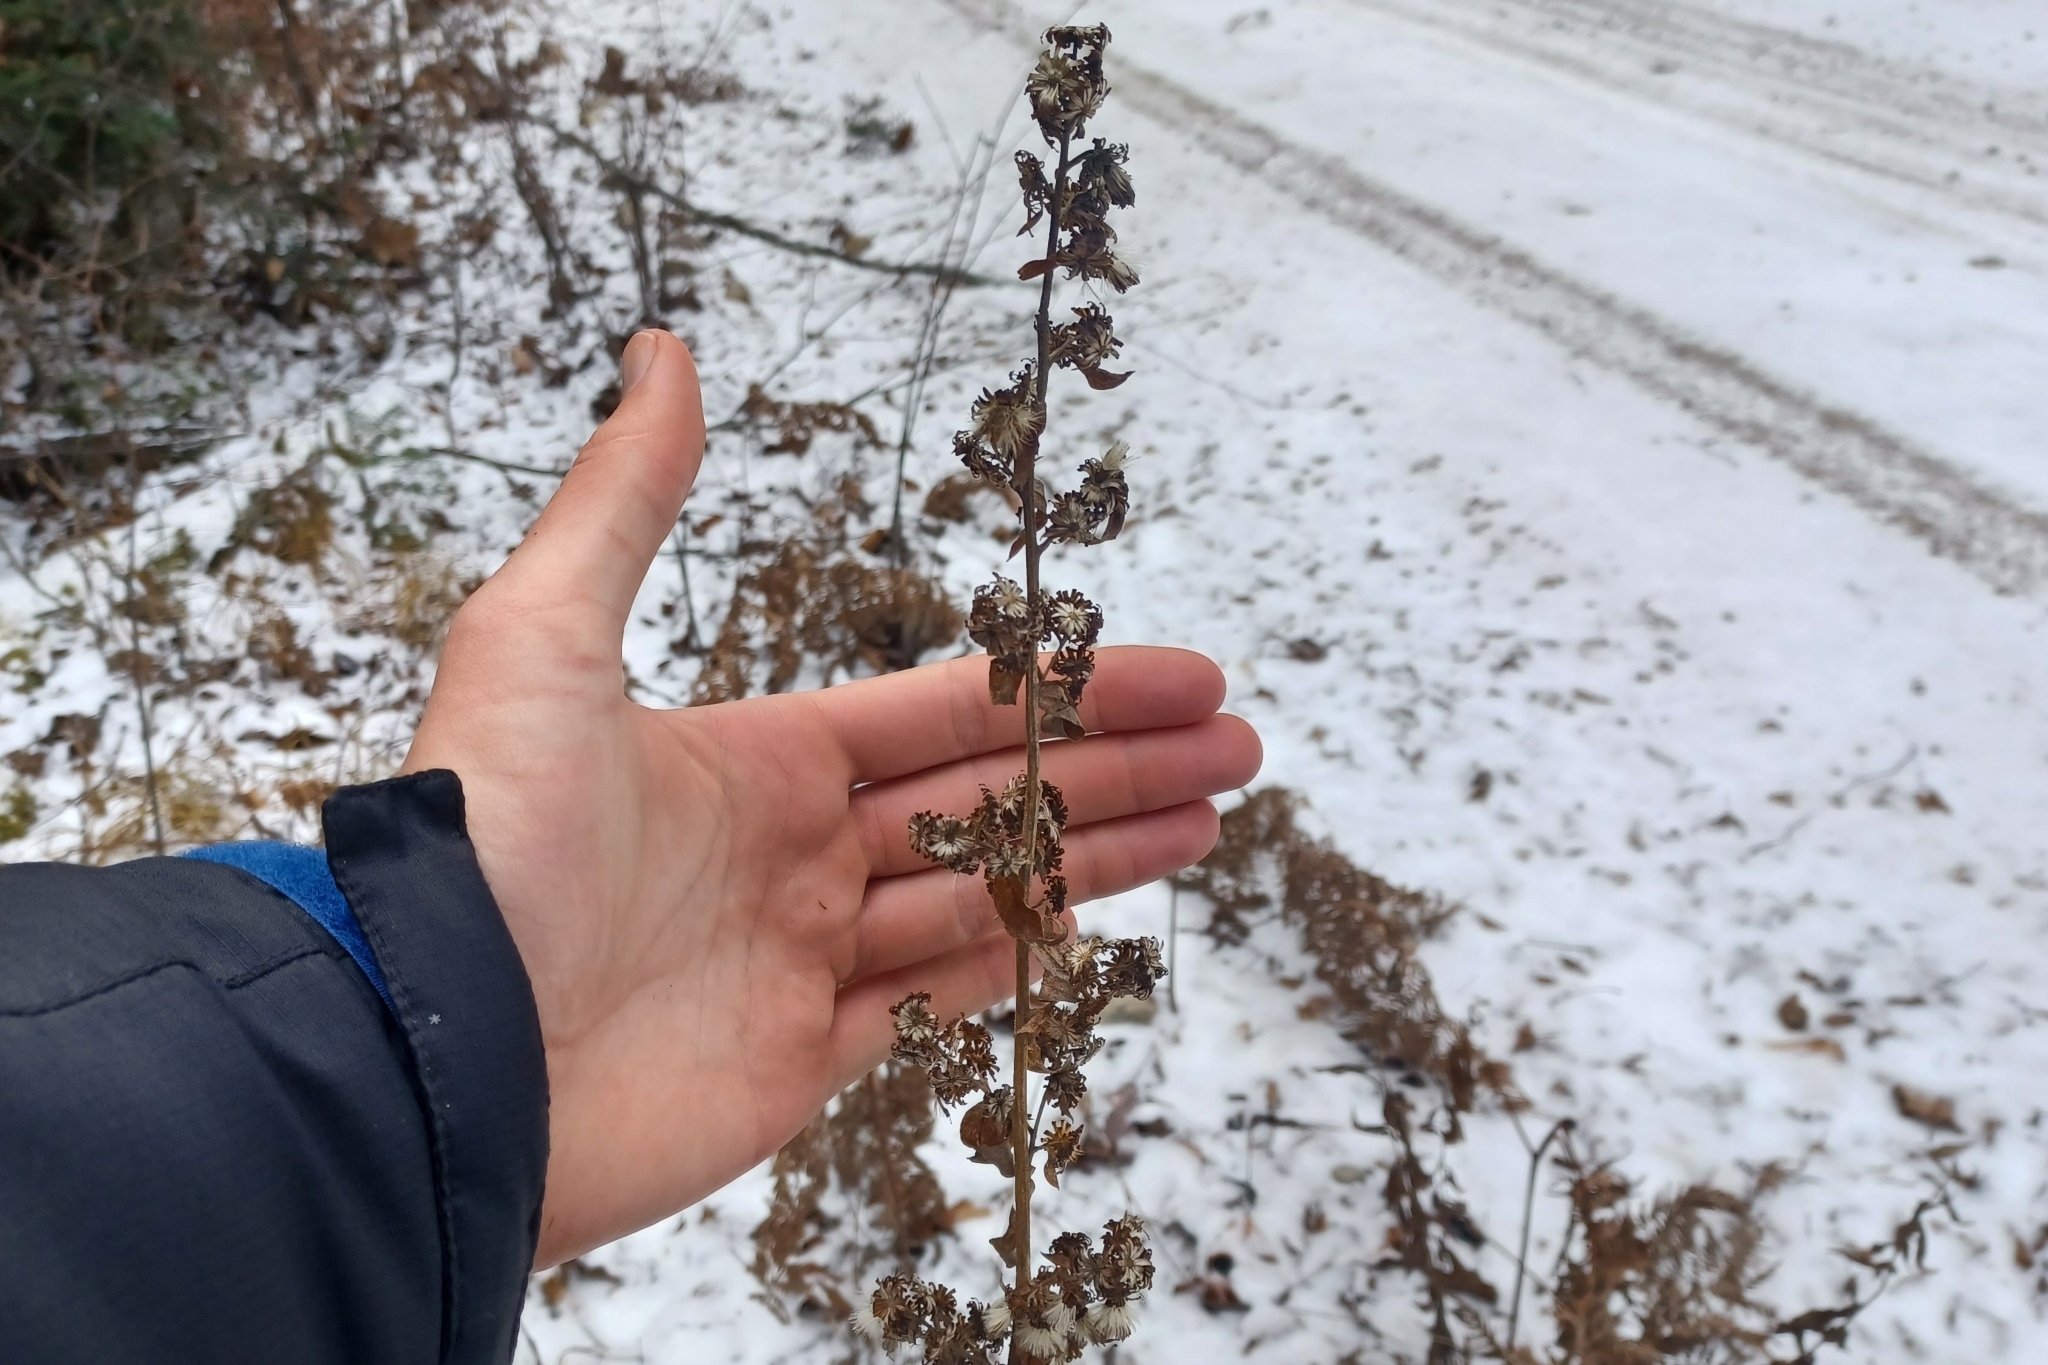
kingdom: Plantae
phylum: Tracheophyta
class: Magnoliopsida
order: Asterales
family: Asteraceae
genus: Solidago
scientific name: Solidago squarrosa
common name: Stout goldenrod
